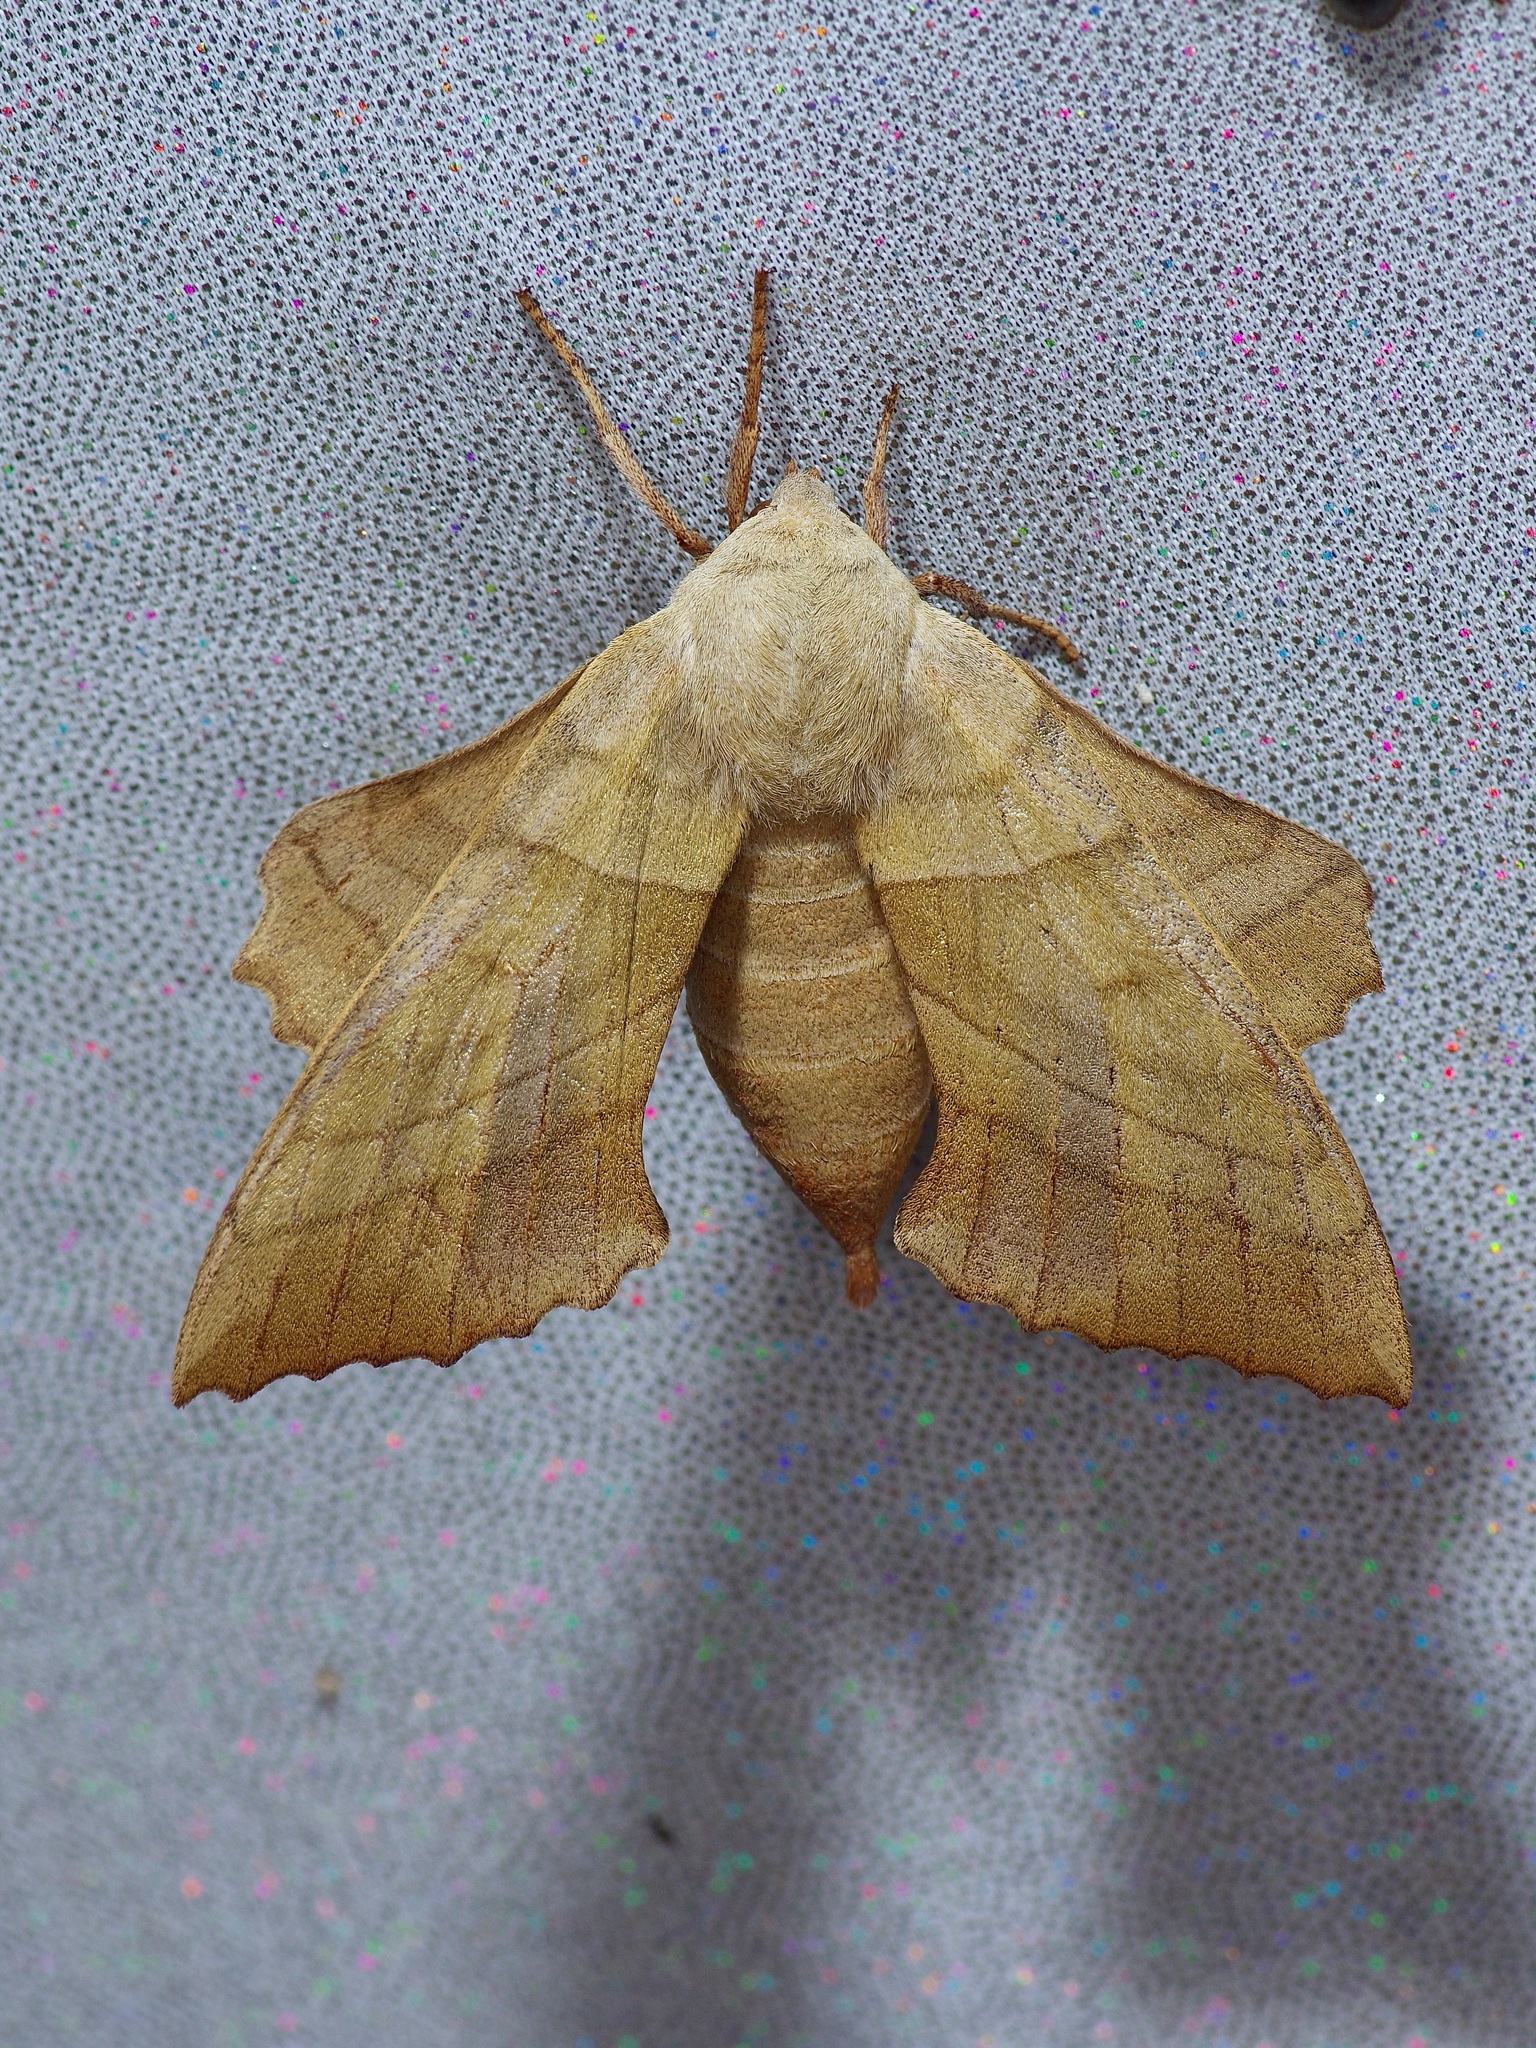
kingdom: Animalia
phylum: Arthropoda
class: Insecta
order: Lepidoptera
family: Sphingidae
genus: Amorpha
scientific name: Amorpha juglandis
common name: Walnut sphinx
